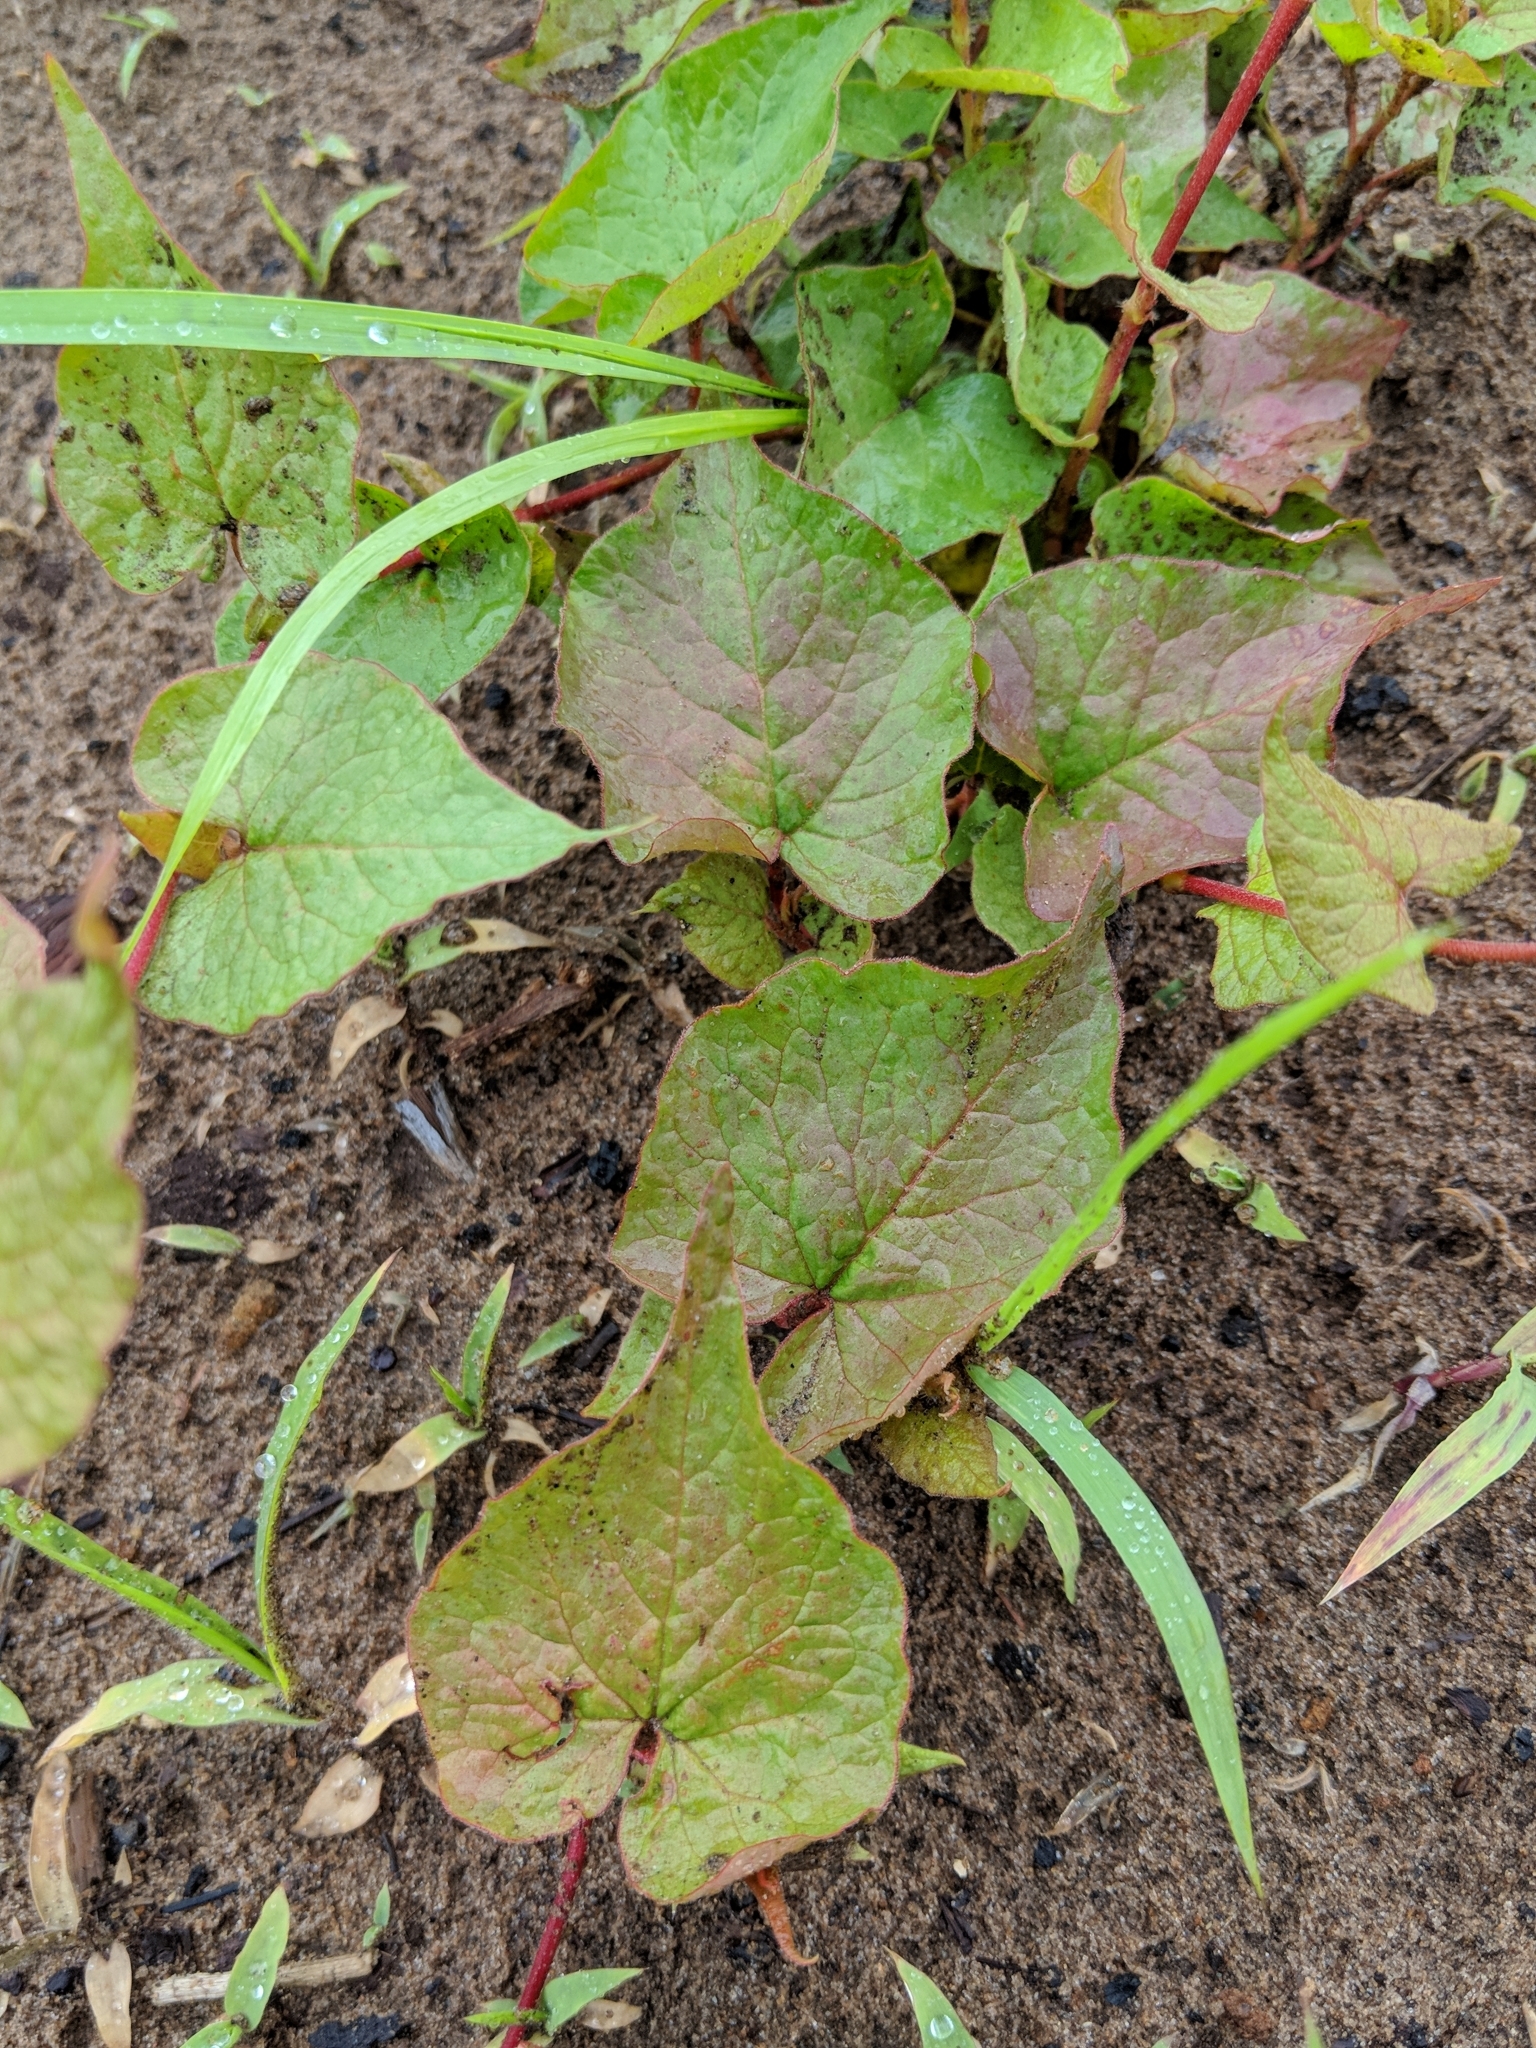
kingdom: Plantae
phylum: Tracheophyta
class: Magnoliopsida
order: Caryophyllales
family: Polygonaceae
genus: Parogonum
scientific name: Parogonum ciliinode
